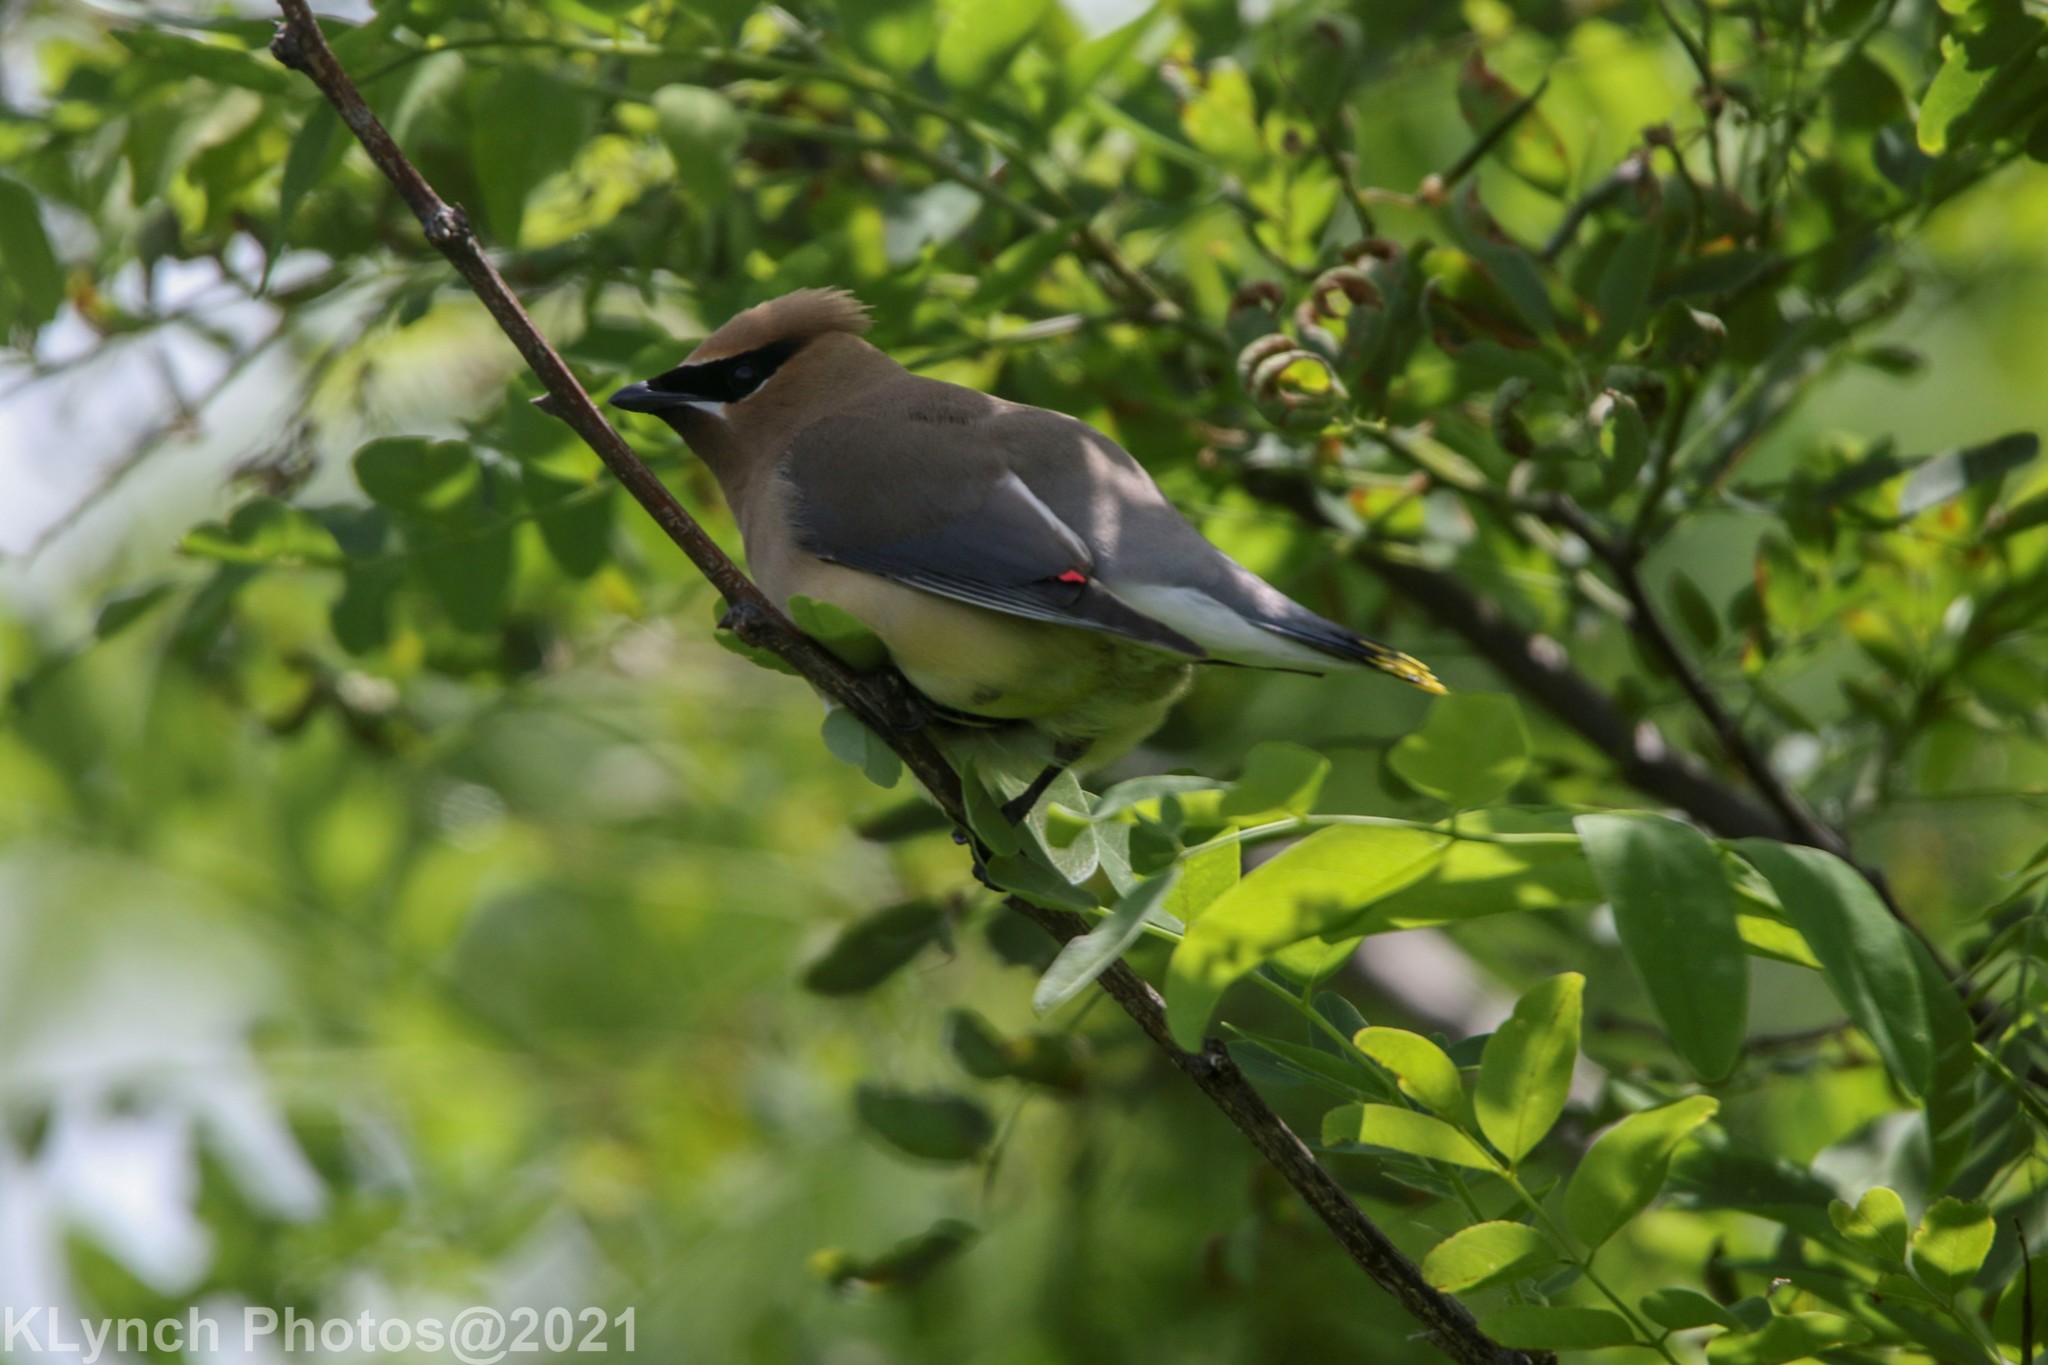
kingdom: Animalia
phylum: Chordata
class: Aves
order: Passeriformes
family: Bombycillidae
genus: Bombycilla
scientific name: Bombycilla cedrorum
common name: Cedar waxwing
